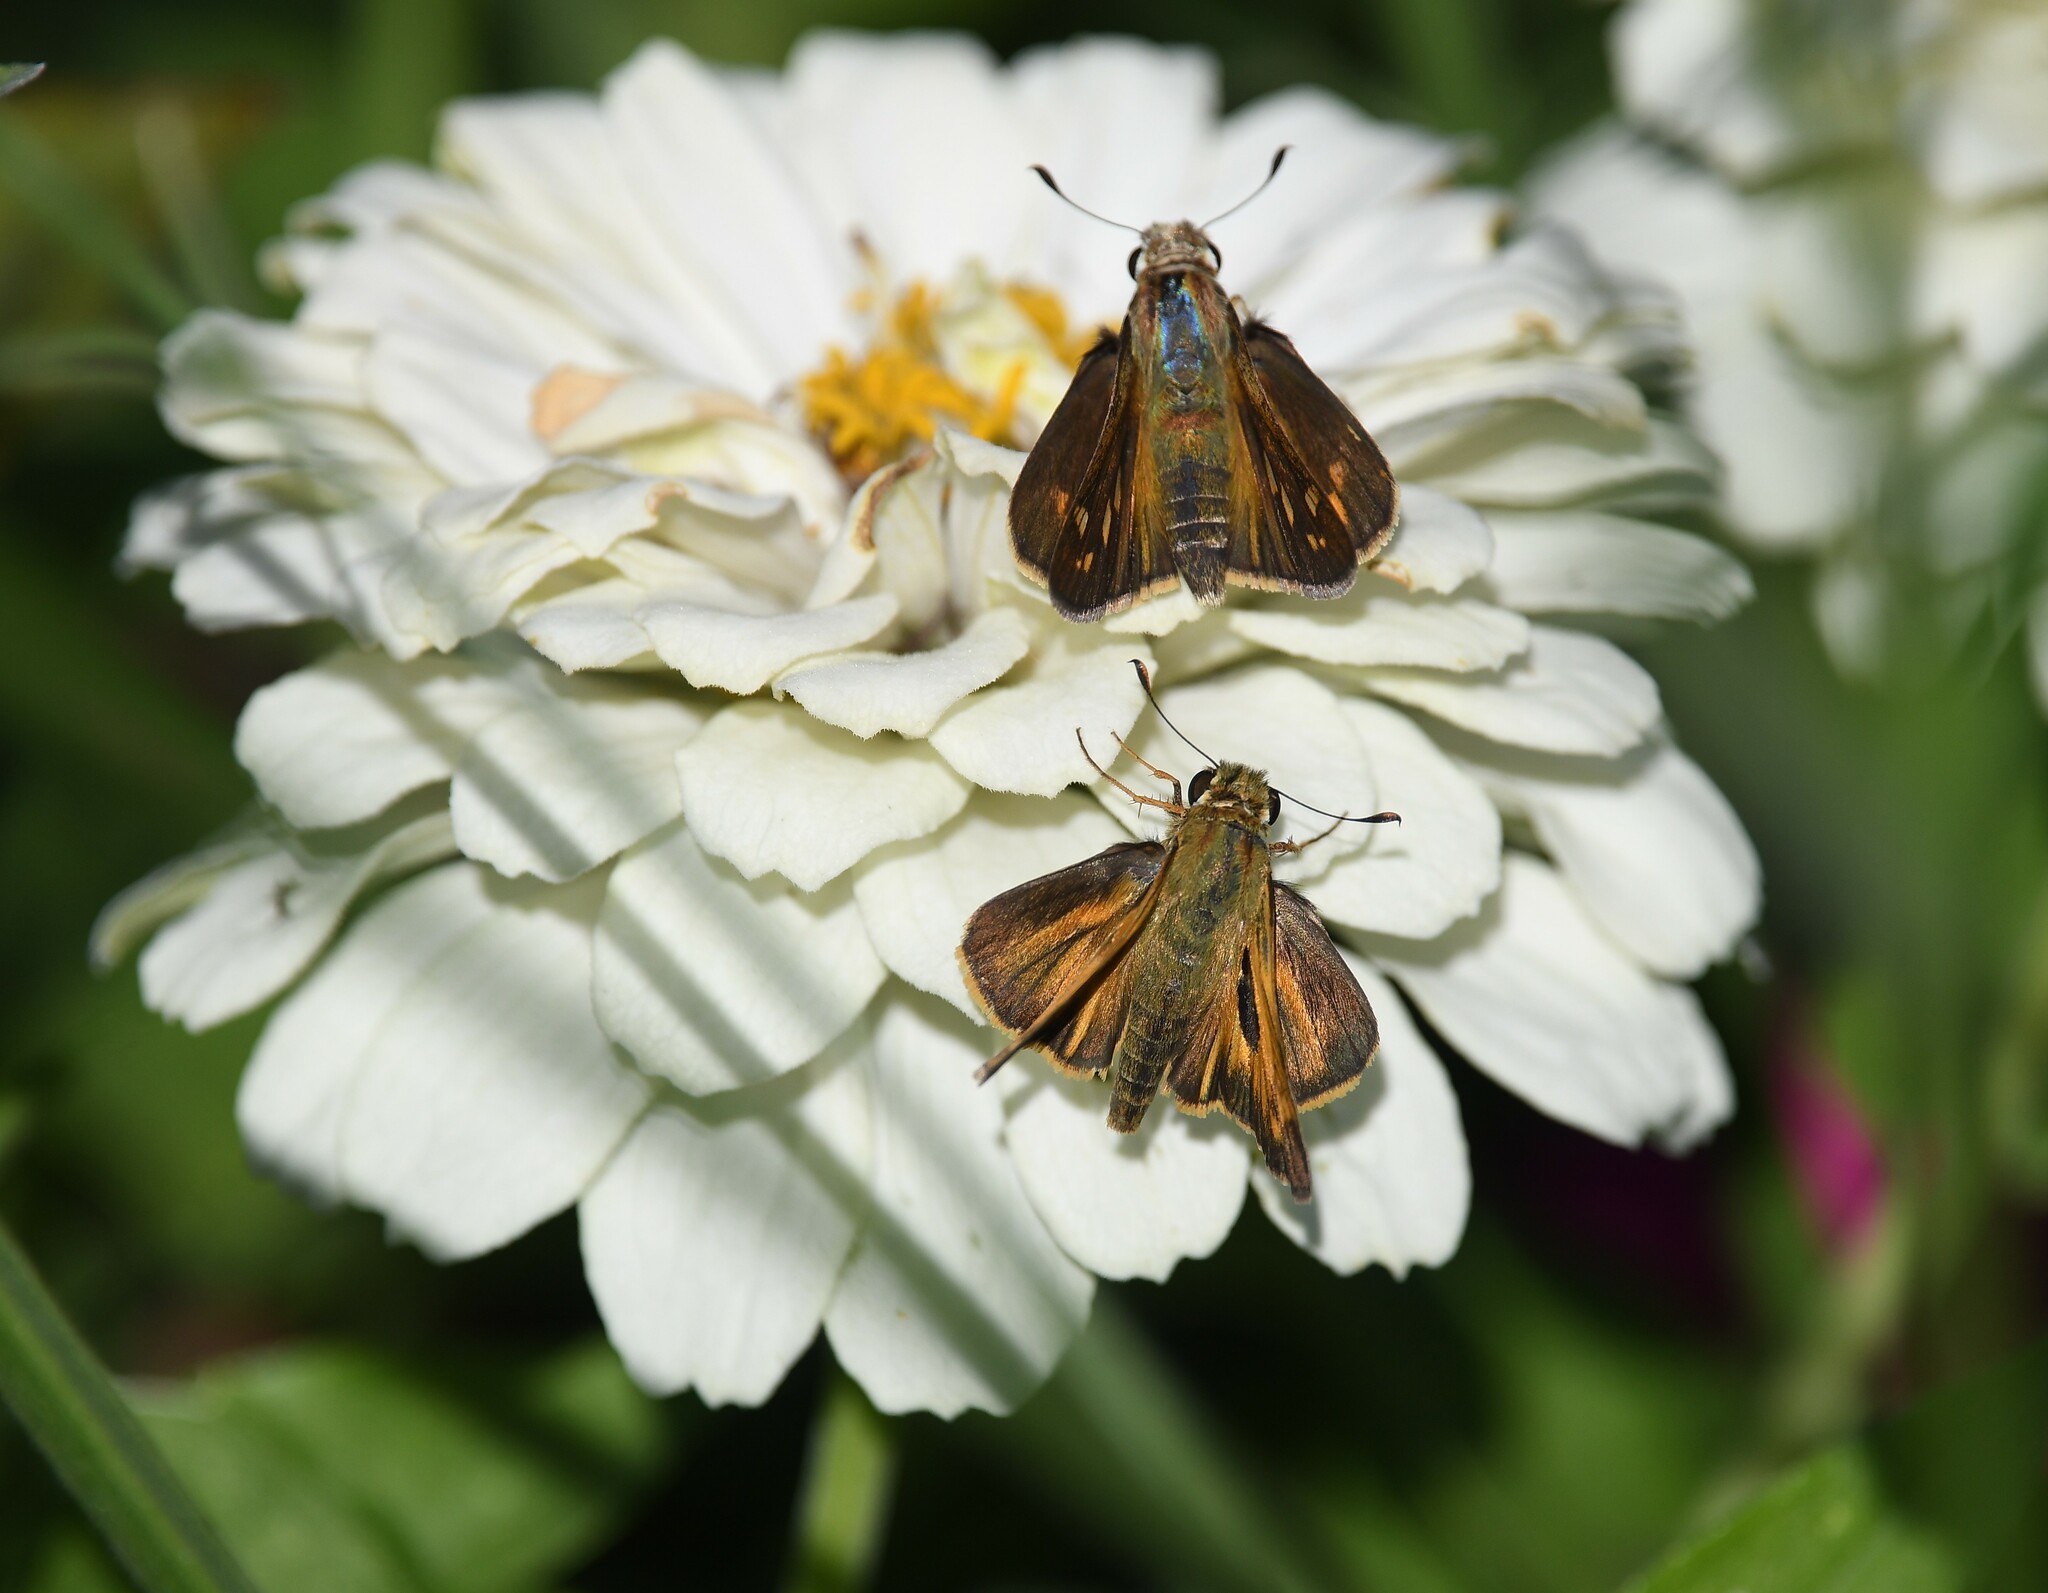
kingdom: Animalia
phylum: Arthropoda
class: Insecta
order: Lepidoptera
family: Hesperiidae
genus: Atalopedes
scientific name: Atalopedes
